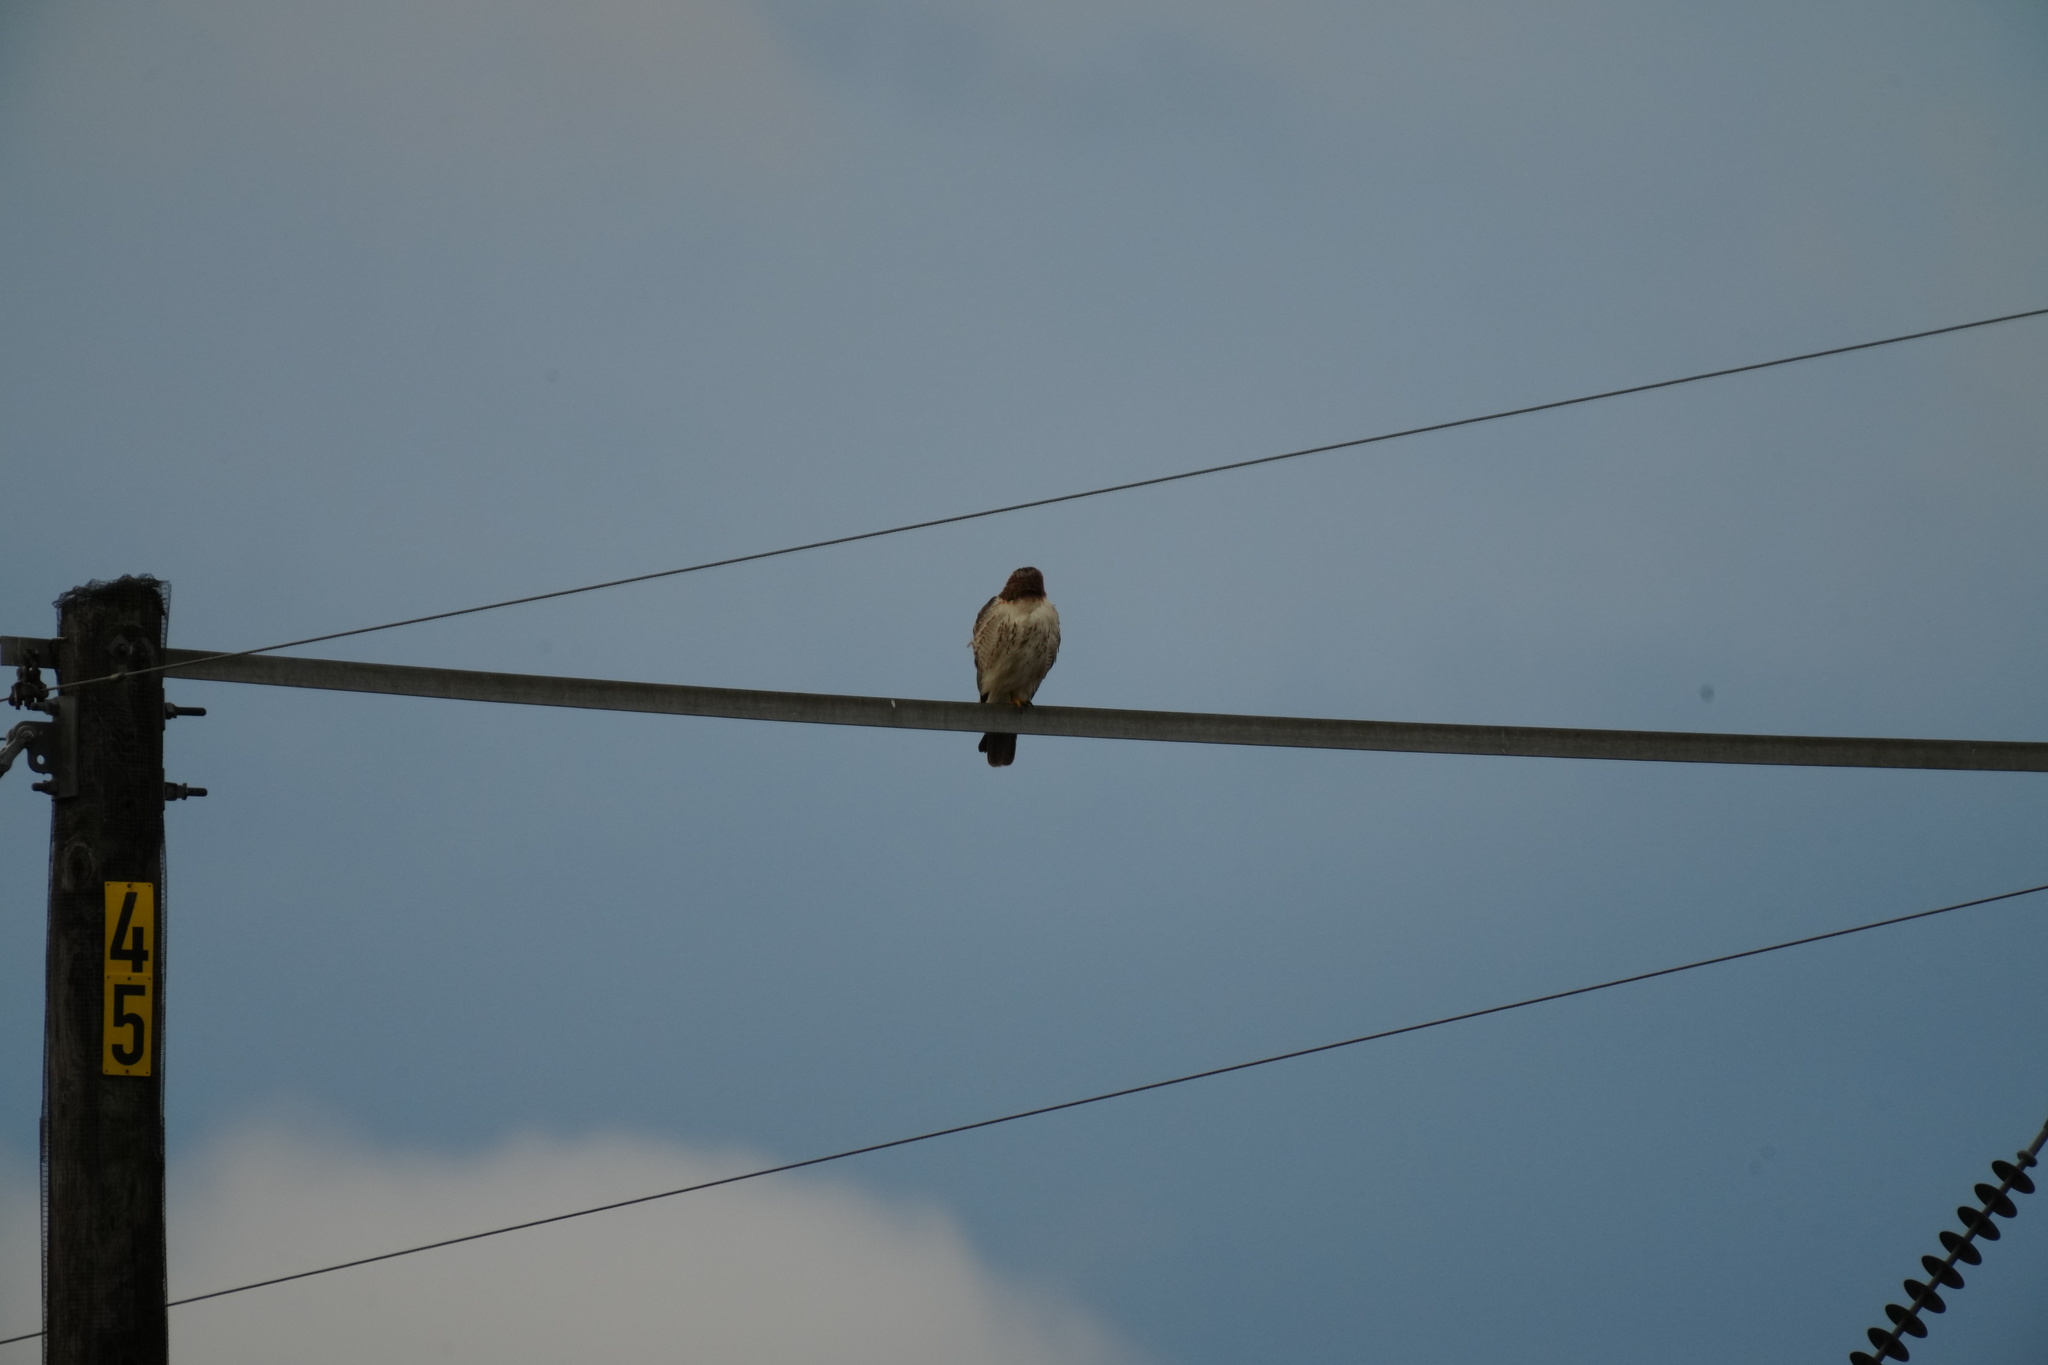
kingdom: Animalia
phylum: Chordata
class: Aves
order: Accipitriformes
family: Accipitridae
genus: Buteo
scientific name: Buteo jamaicensis
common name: Red-tailed hawk
